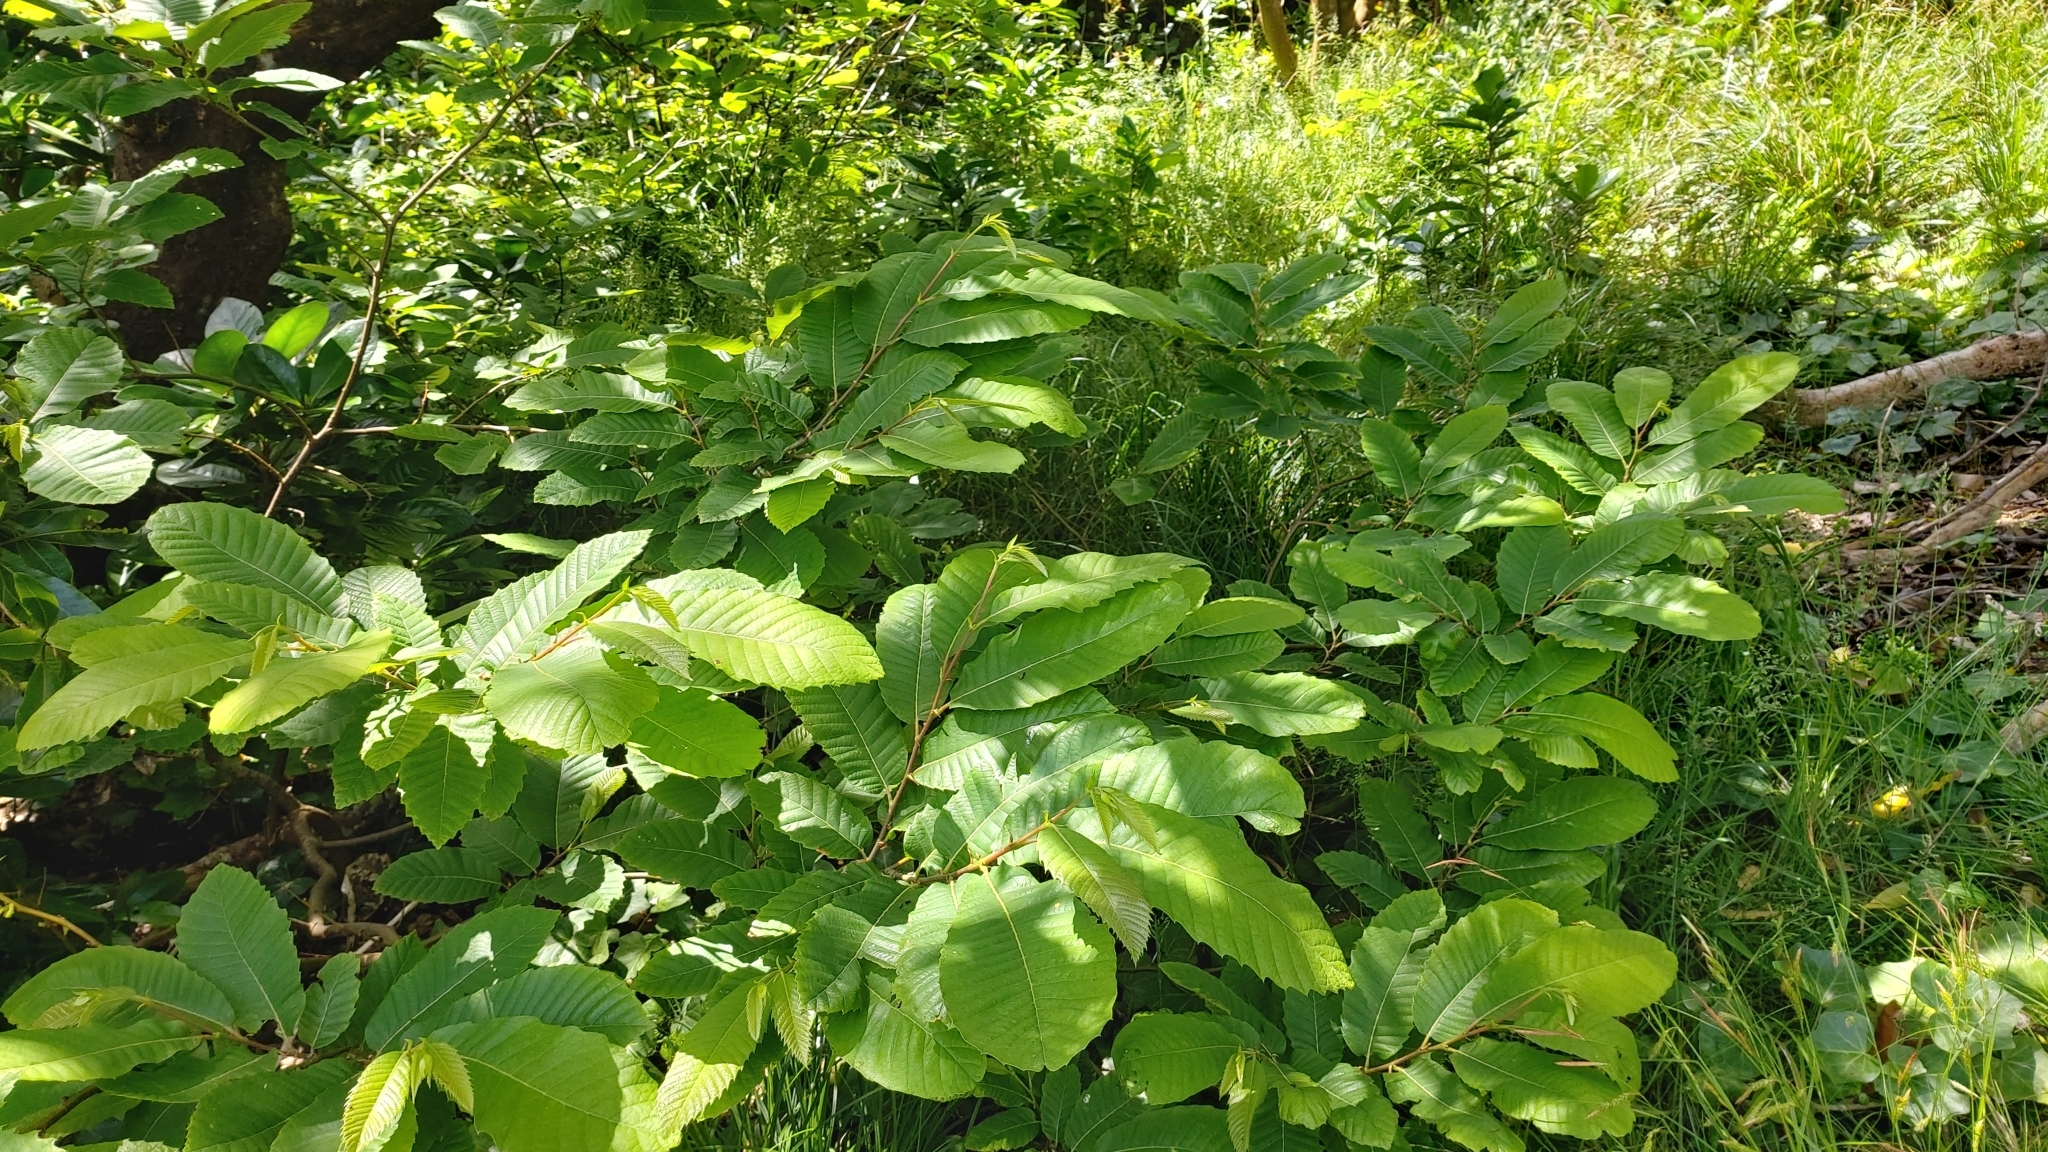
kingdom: Plantae
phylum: Tracheophyta
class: Magnoliopsida
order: Fagales
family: Fagaceae
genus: Castanea
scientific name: Castanea sativa
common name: Sweet chestnut
